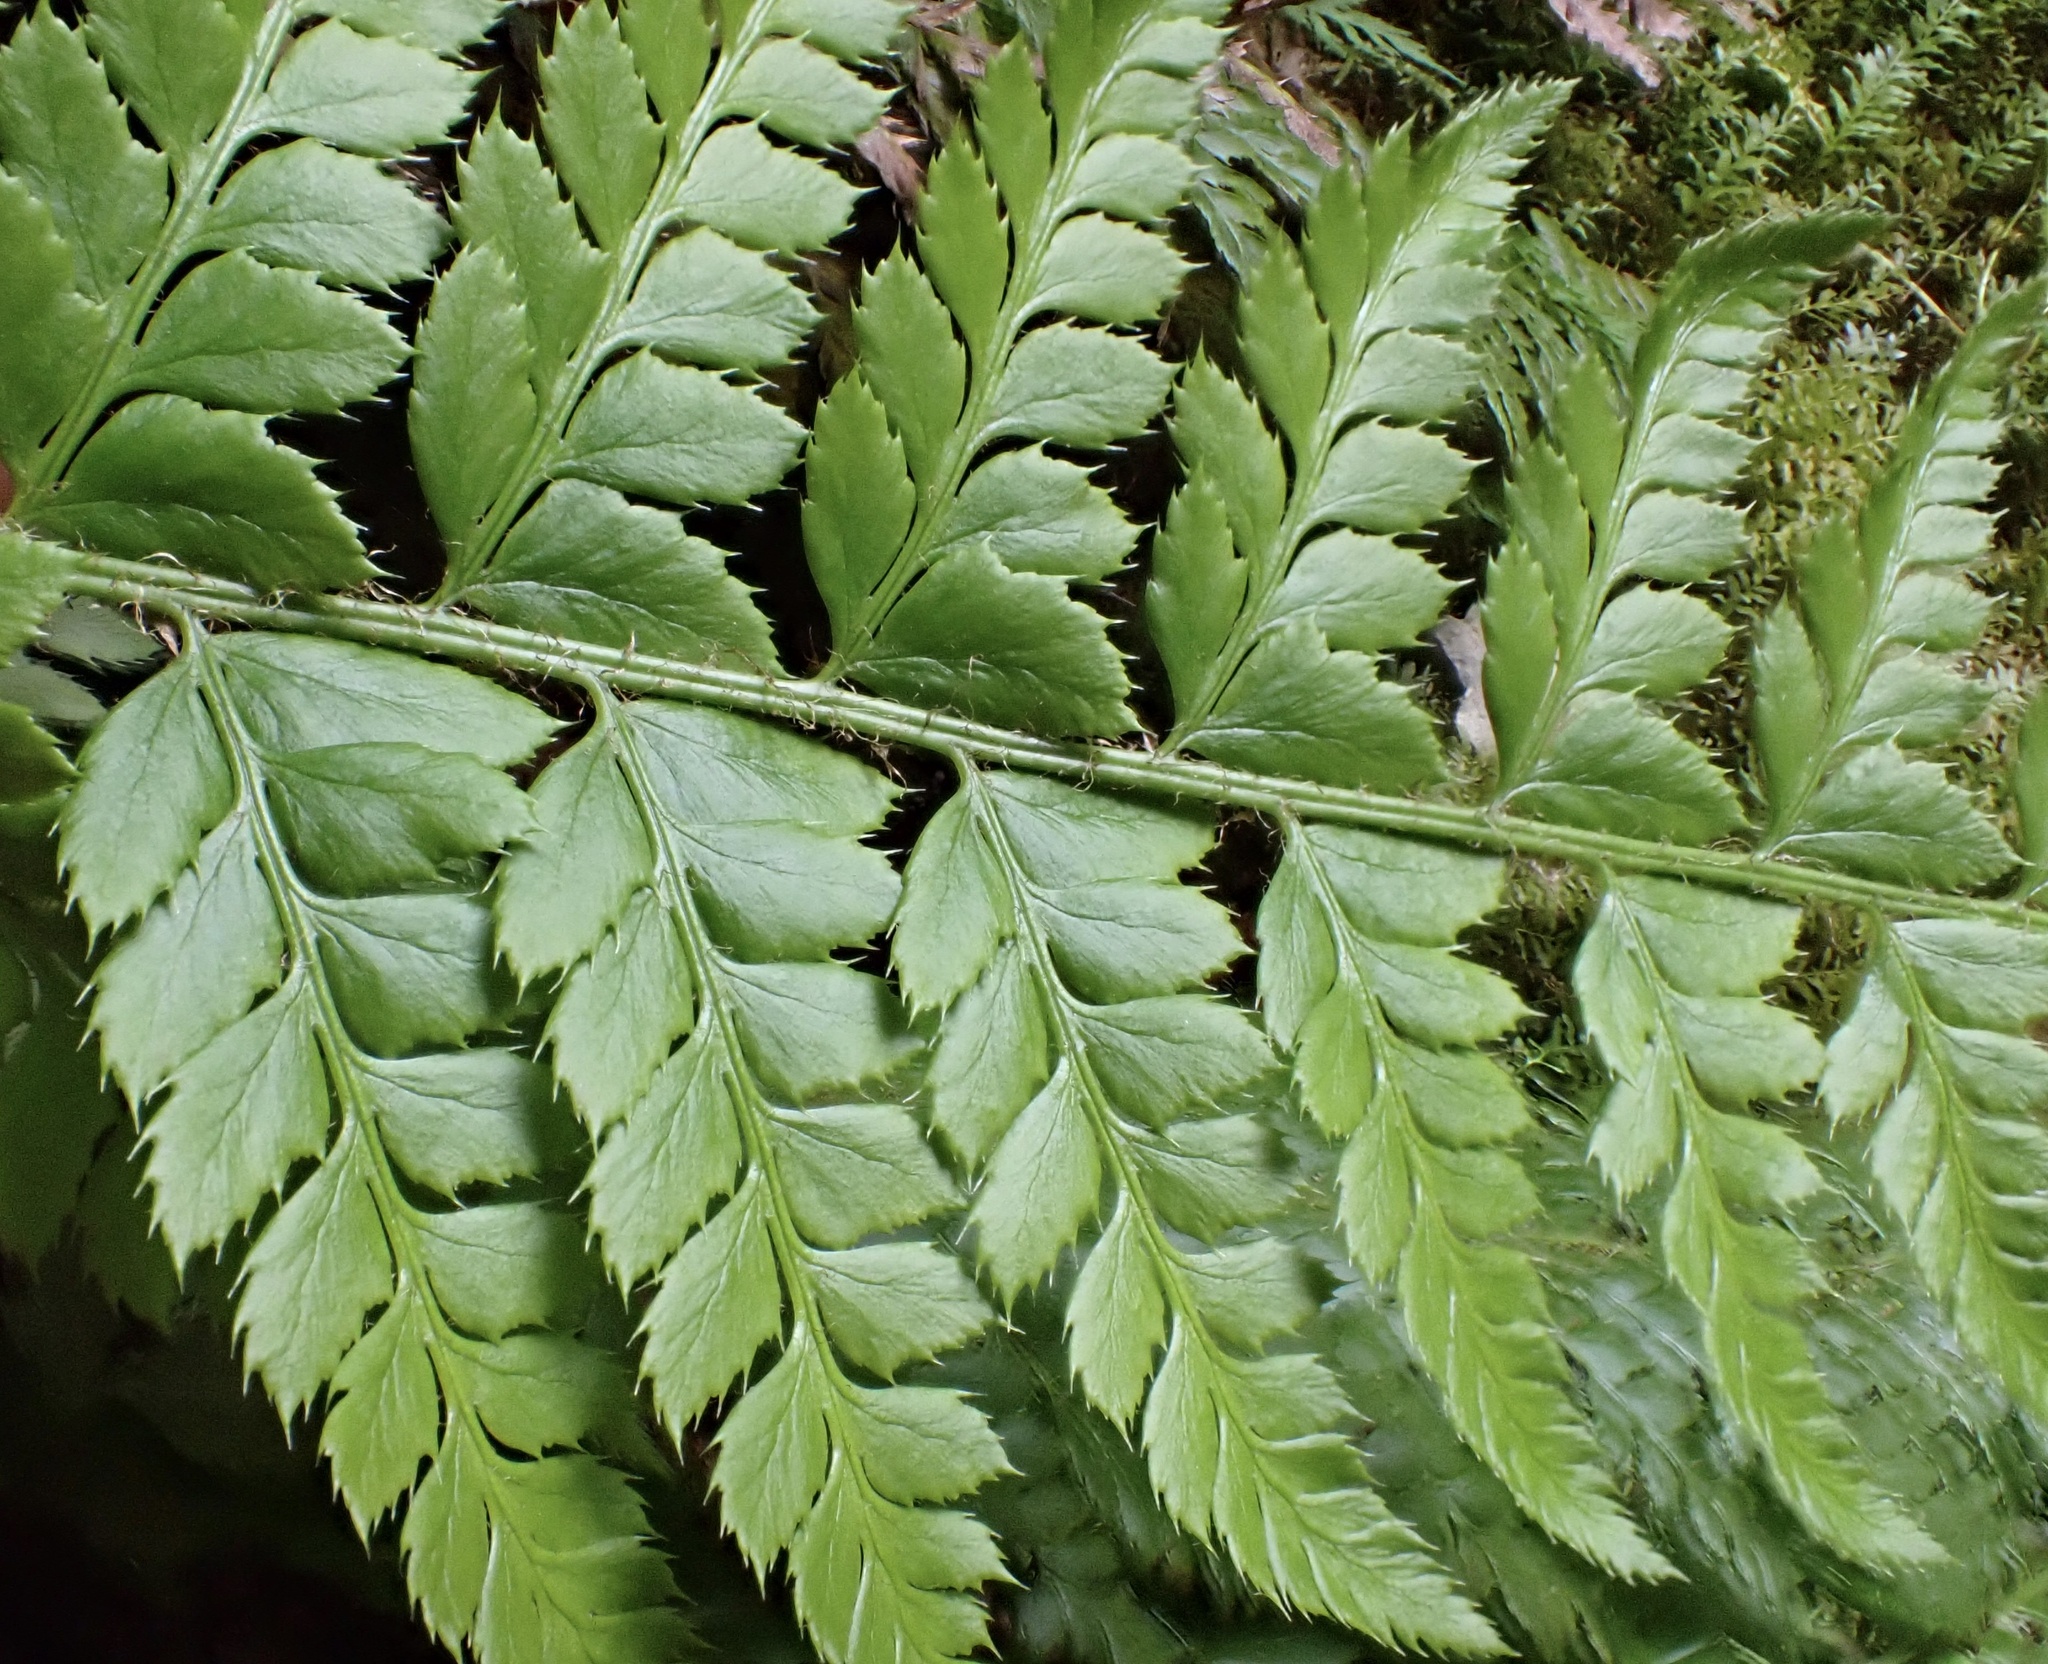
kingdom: Plantae
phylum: Tracheophyta
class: Polypodiopsida
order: Polypodiales
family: Dryopteridaceae
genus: Polystichum
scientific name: Polystichum aculeatum
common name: Hard shield-fern
